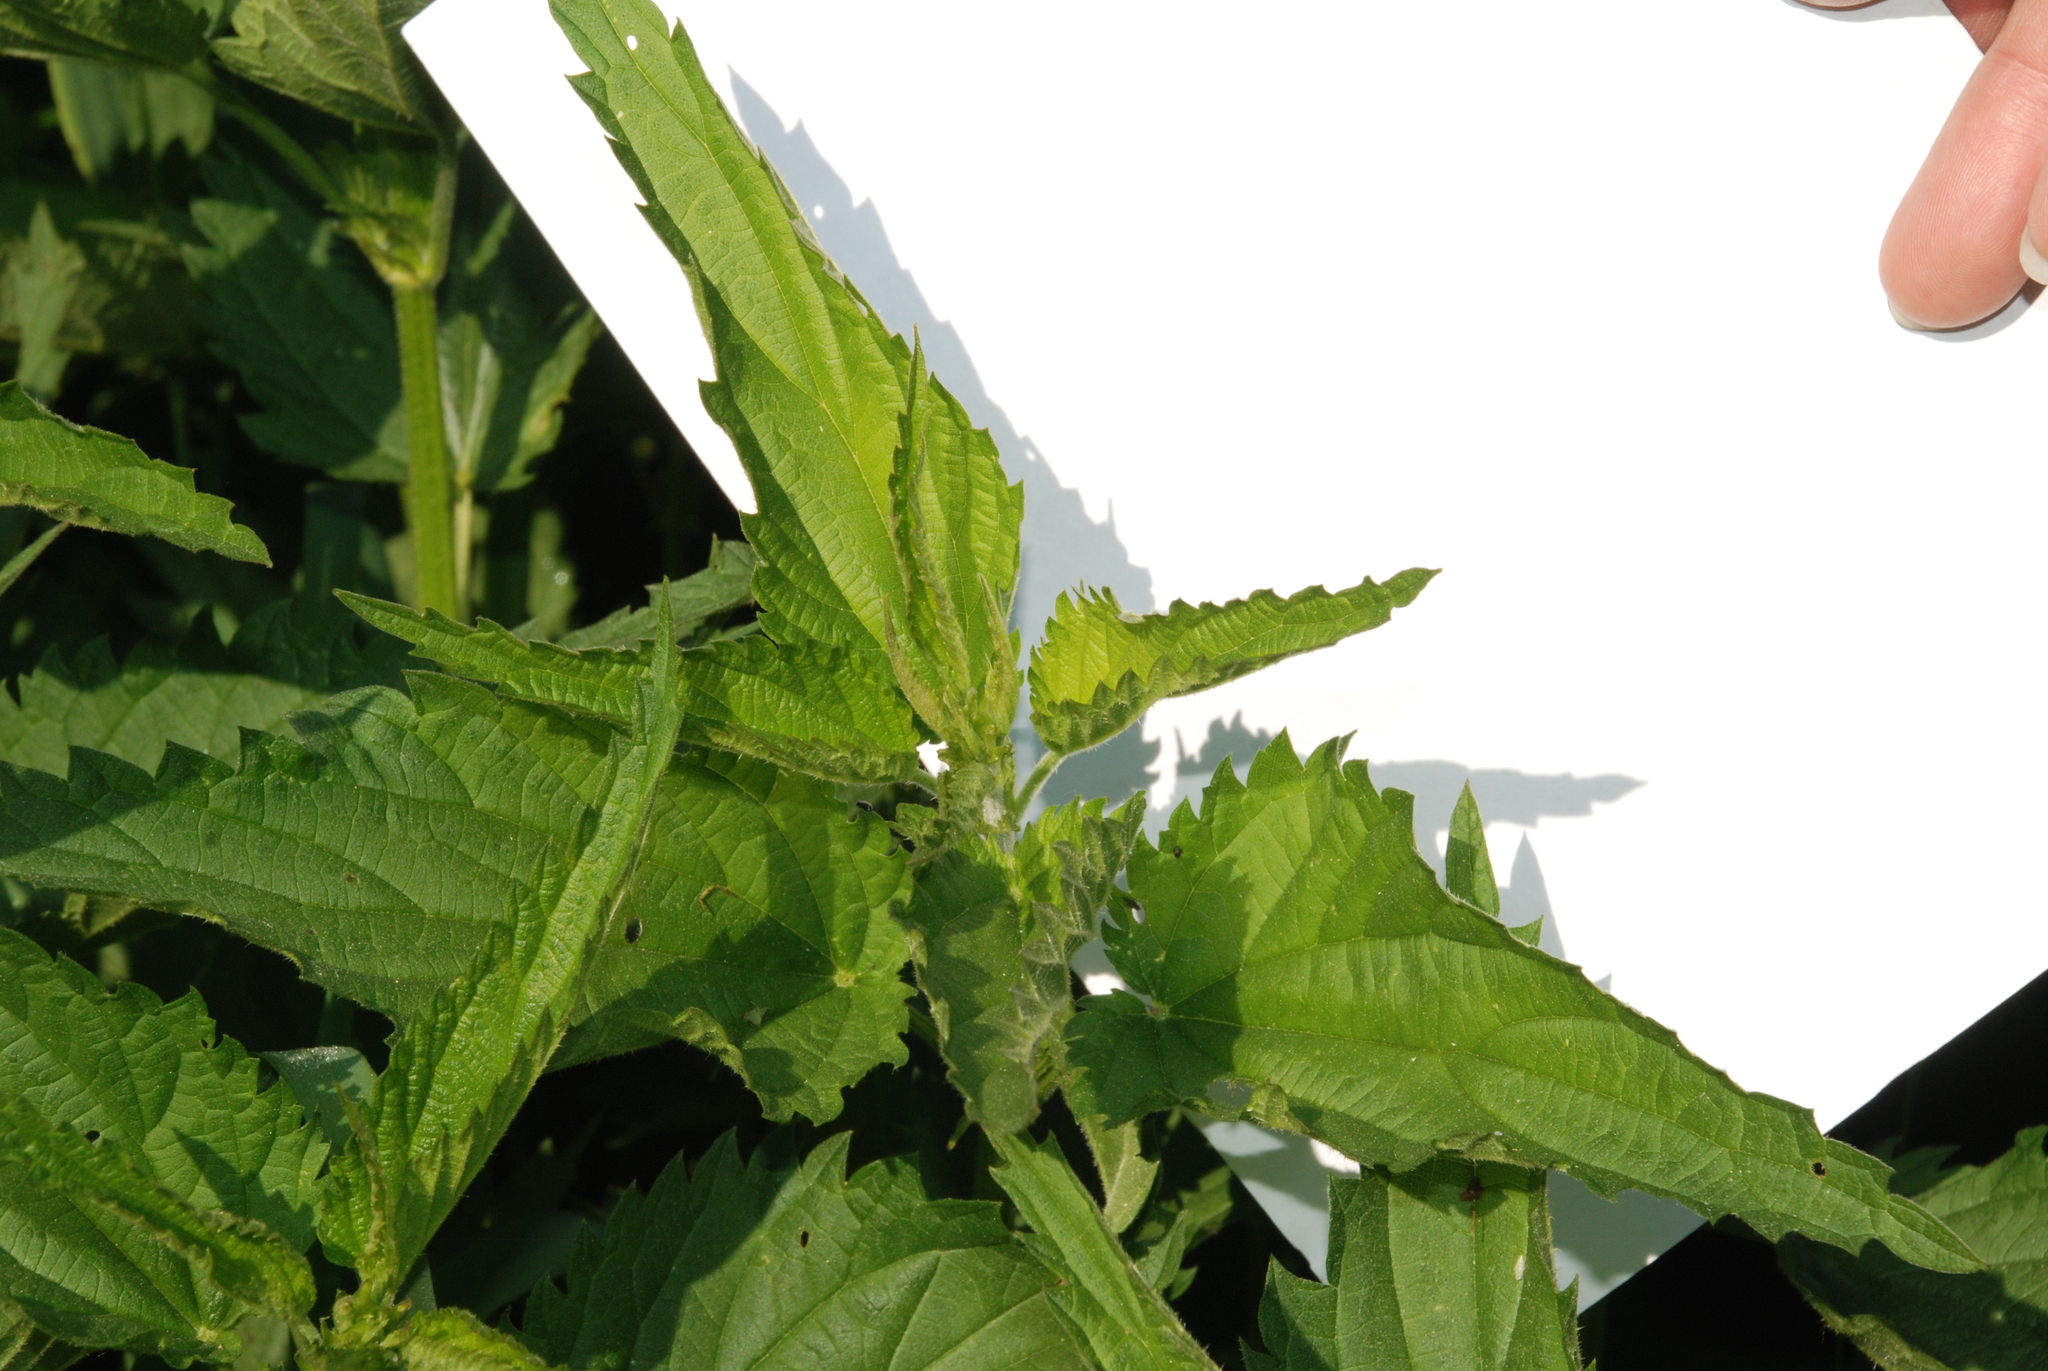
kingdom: Plantae
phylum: Tracheophyta
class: Magnoliopsida
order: Rosales
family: Urticaceae
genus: Urtica
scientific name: Urtica dioica
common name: Common nettle
